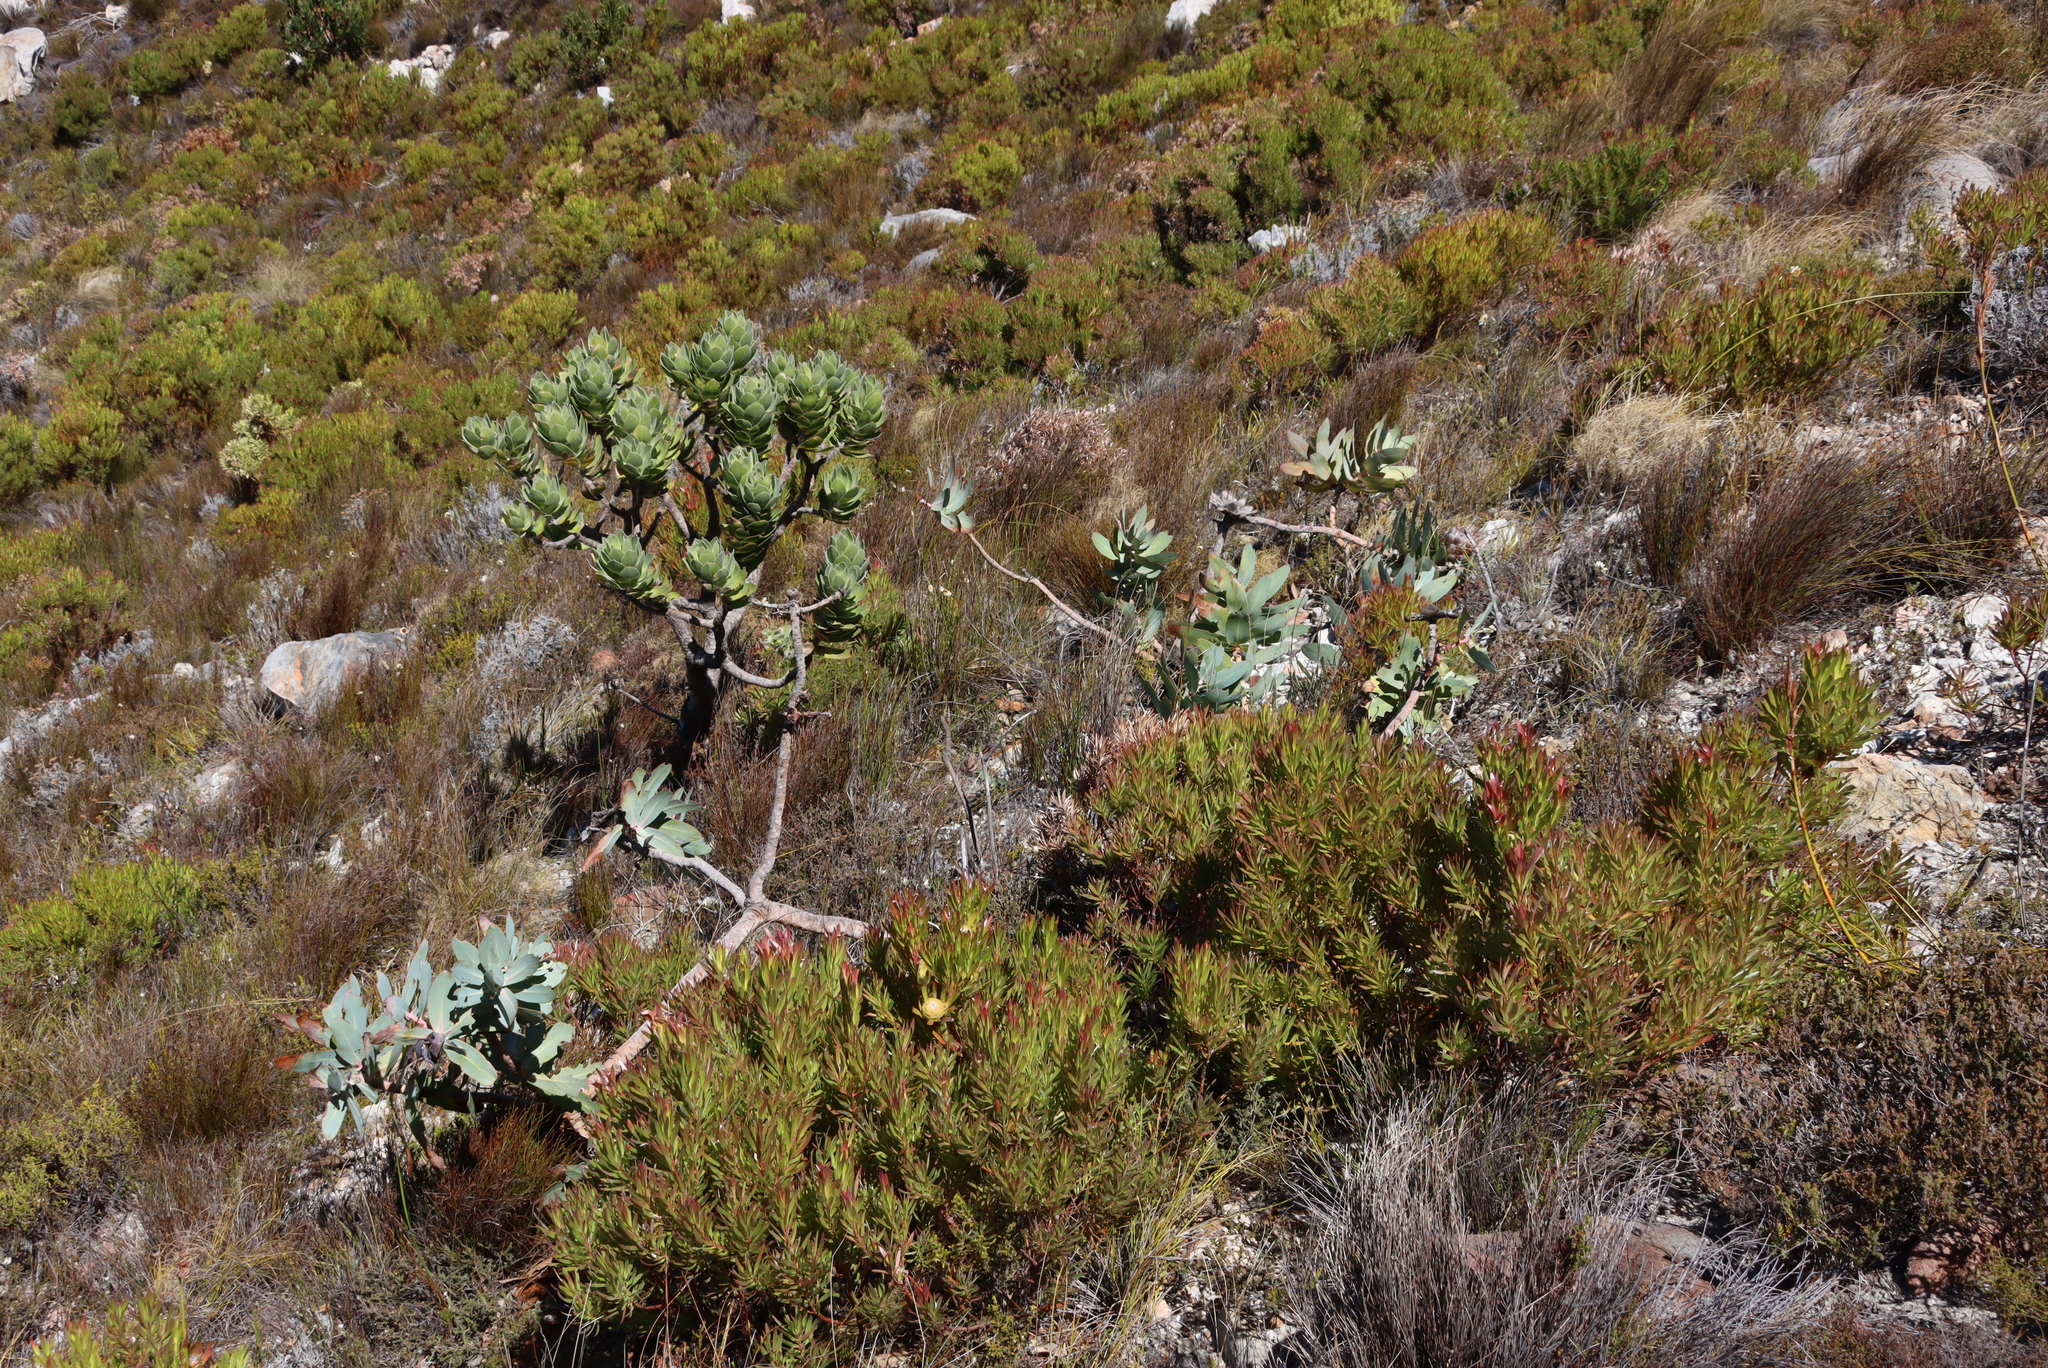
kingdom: Plantae
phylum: Tracheophyta
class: Magnoliopsida
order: Proteales
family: Proteaceae
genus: Protea
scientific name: Protea nitida
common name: Tree protea
